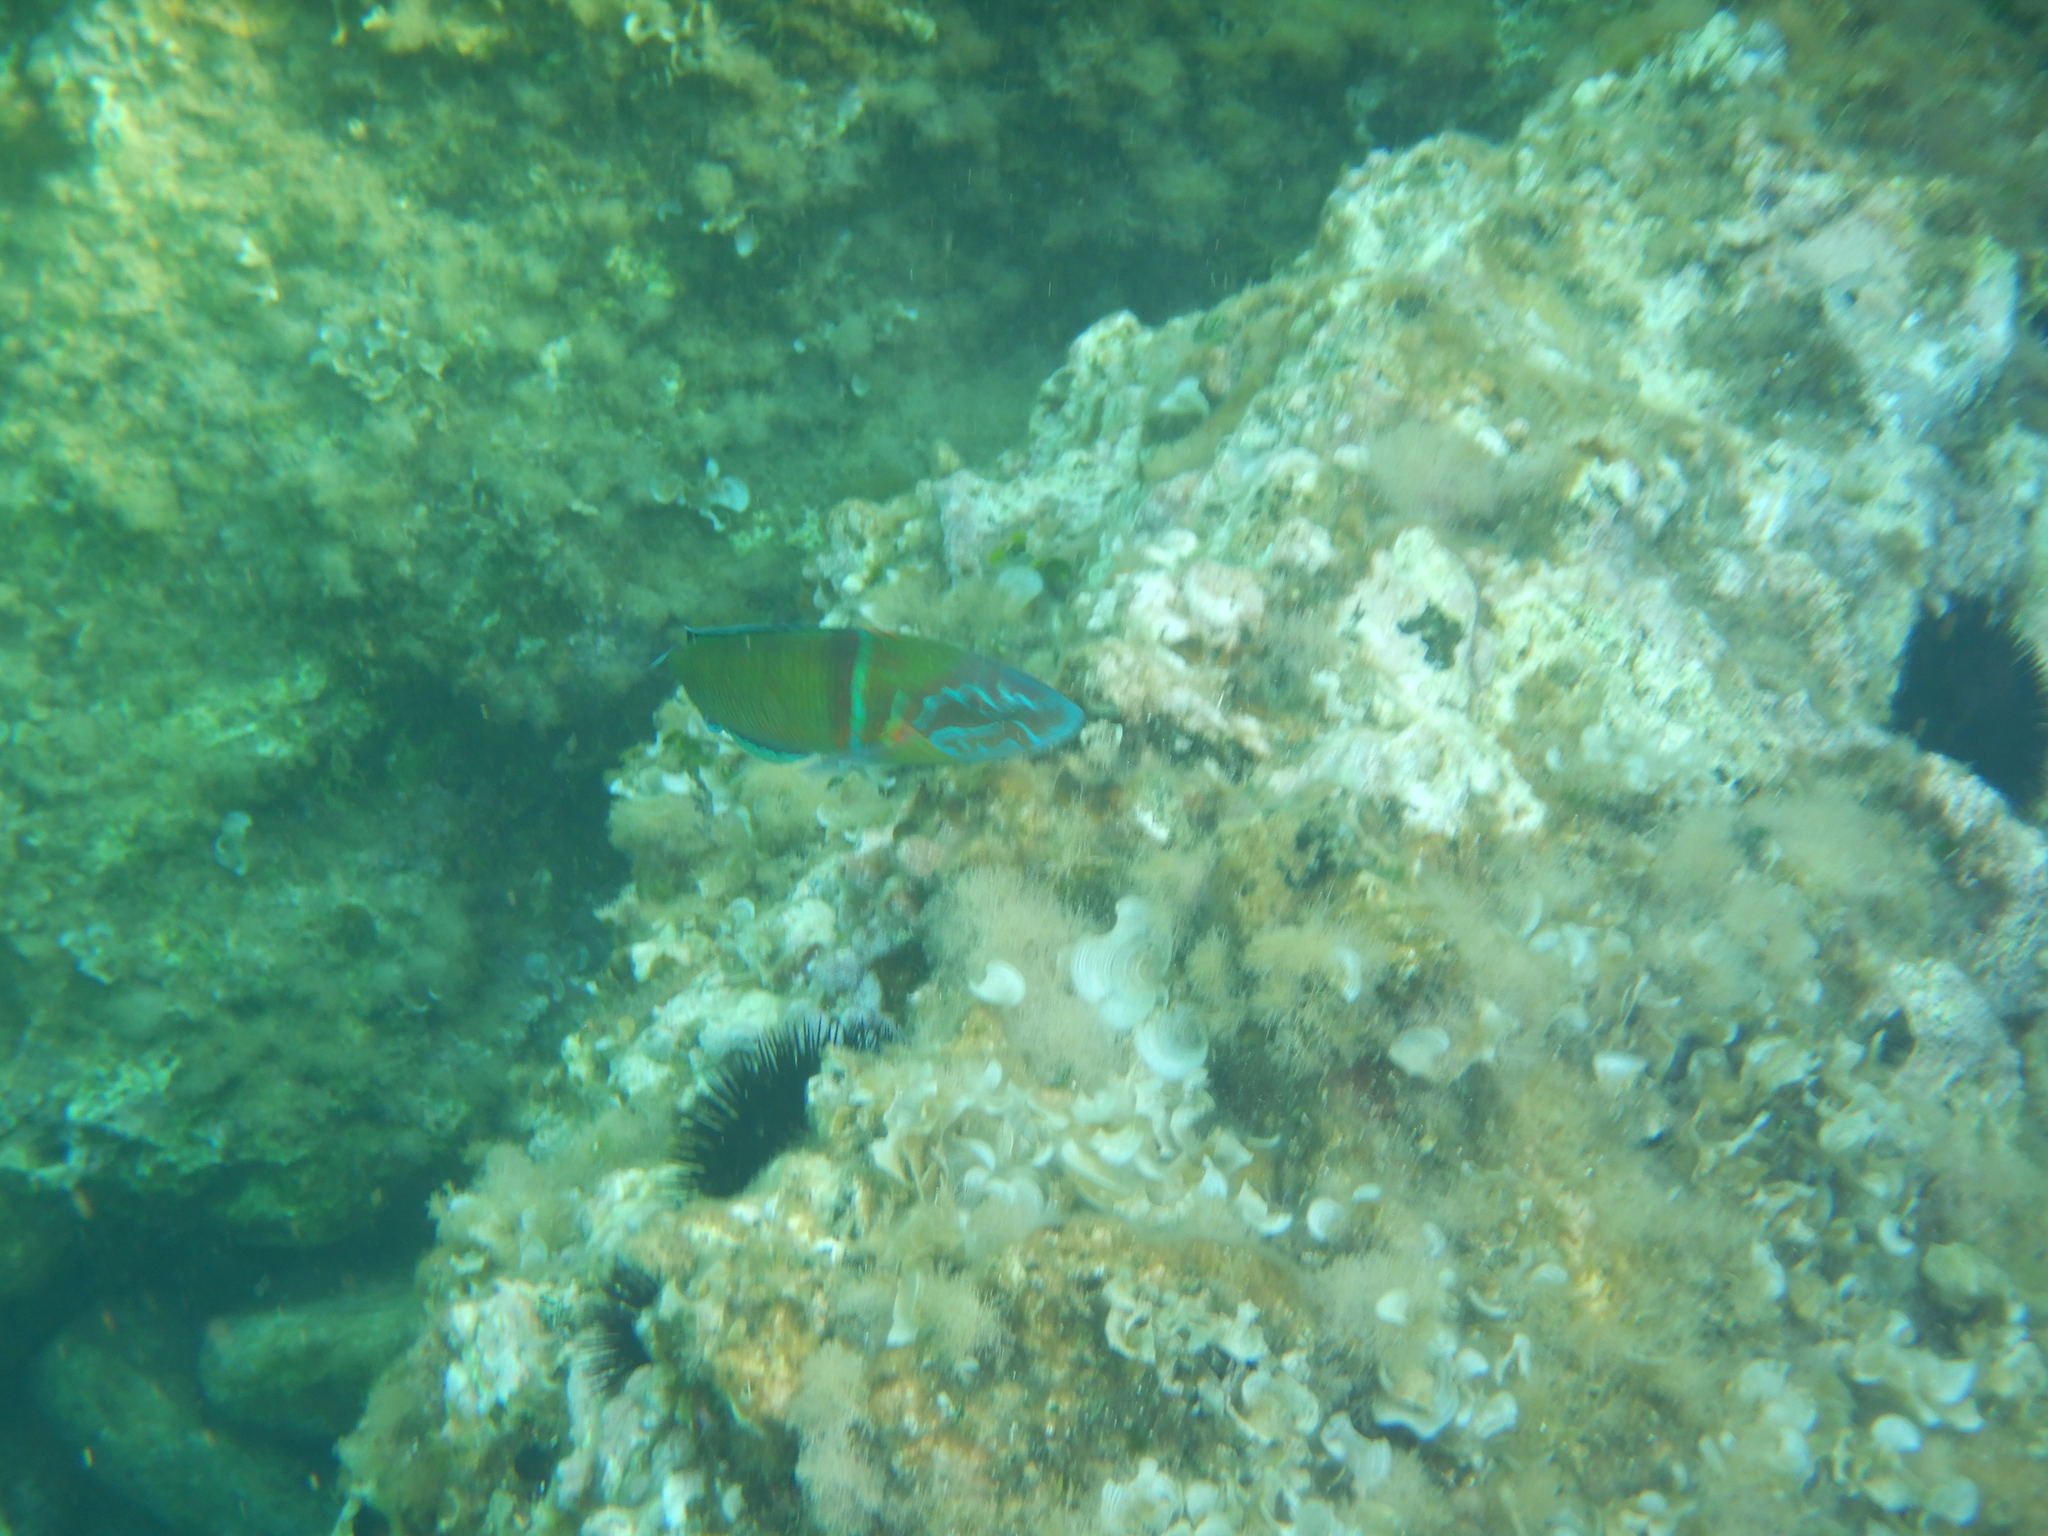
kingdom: Animalia
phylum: Chordata
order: Perciformes
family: Labridae
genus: Thalassoma
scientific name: Thalassoma pavo
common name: Ornate wrasse
